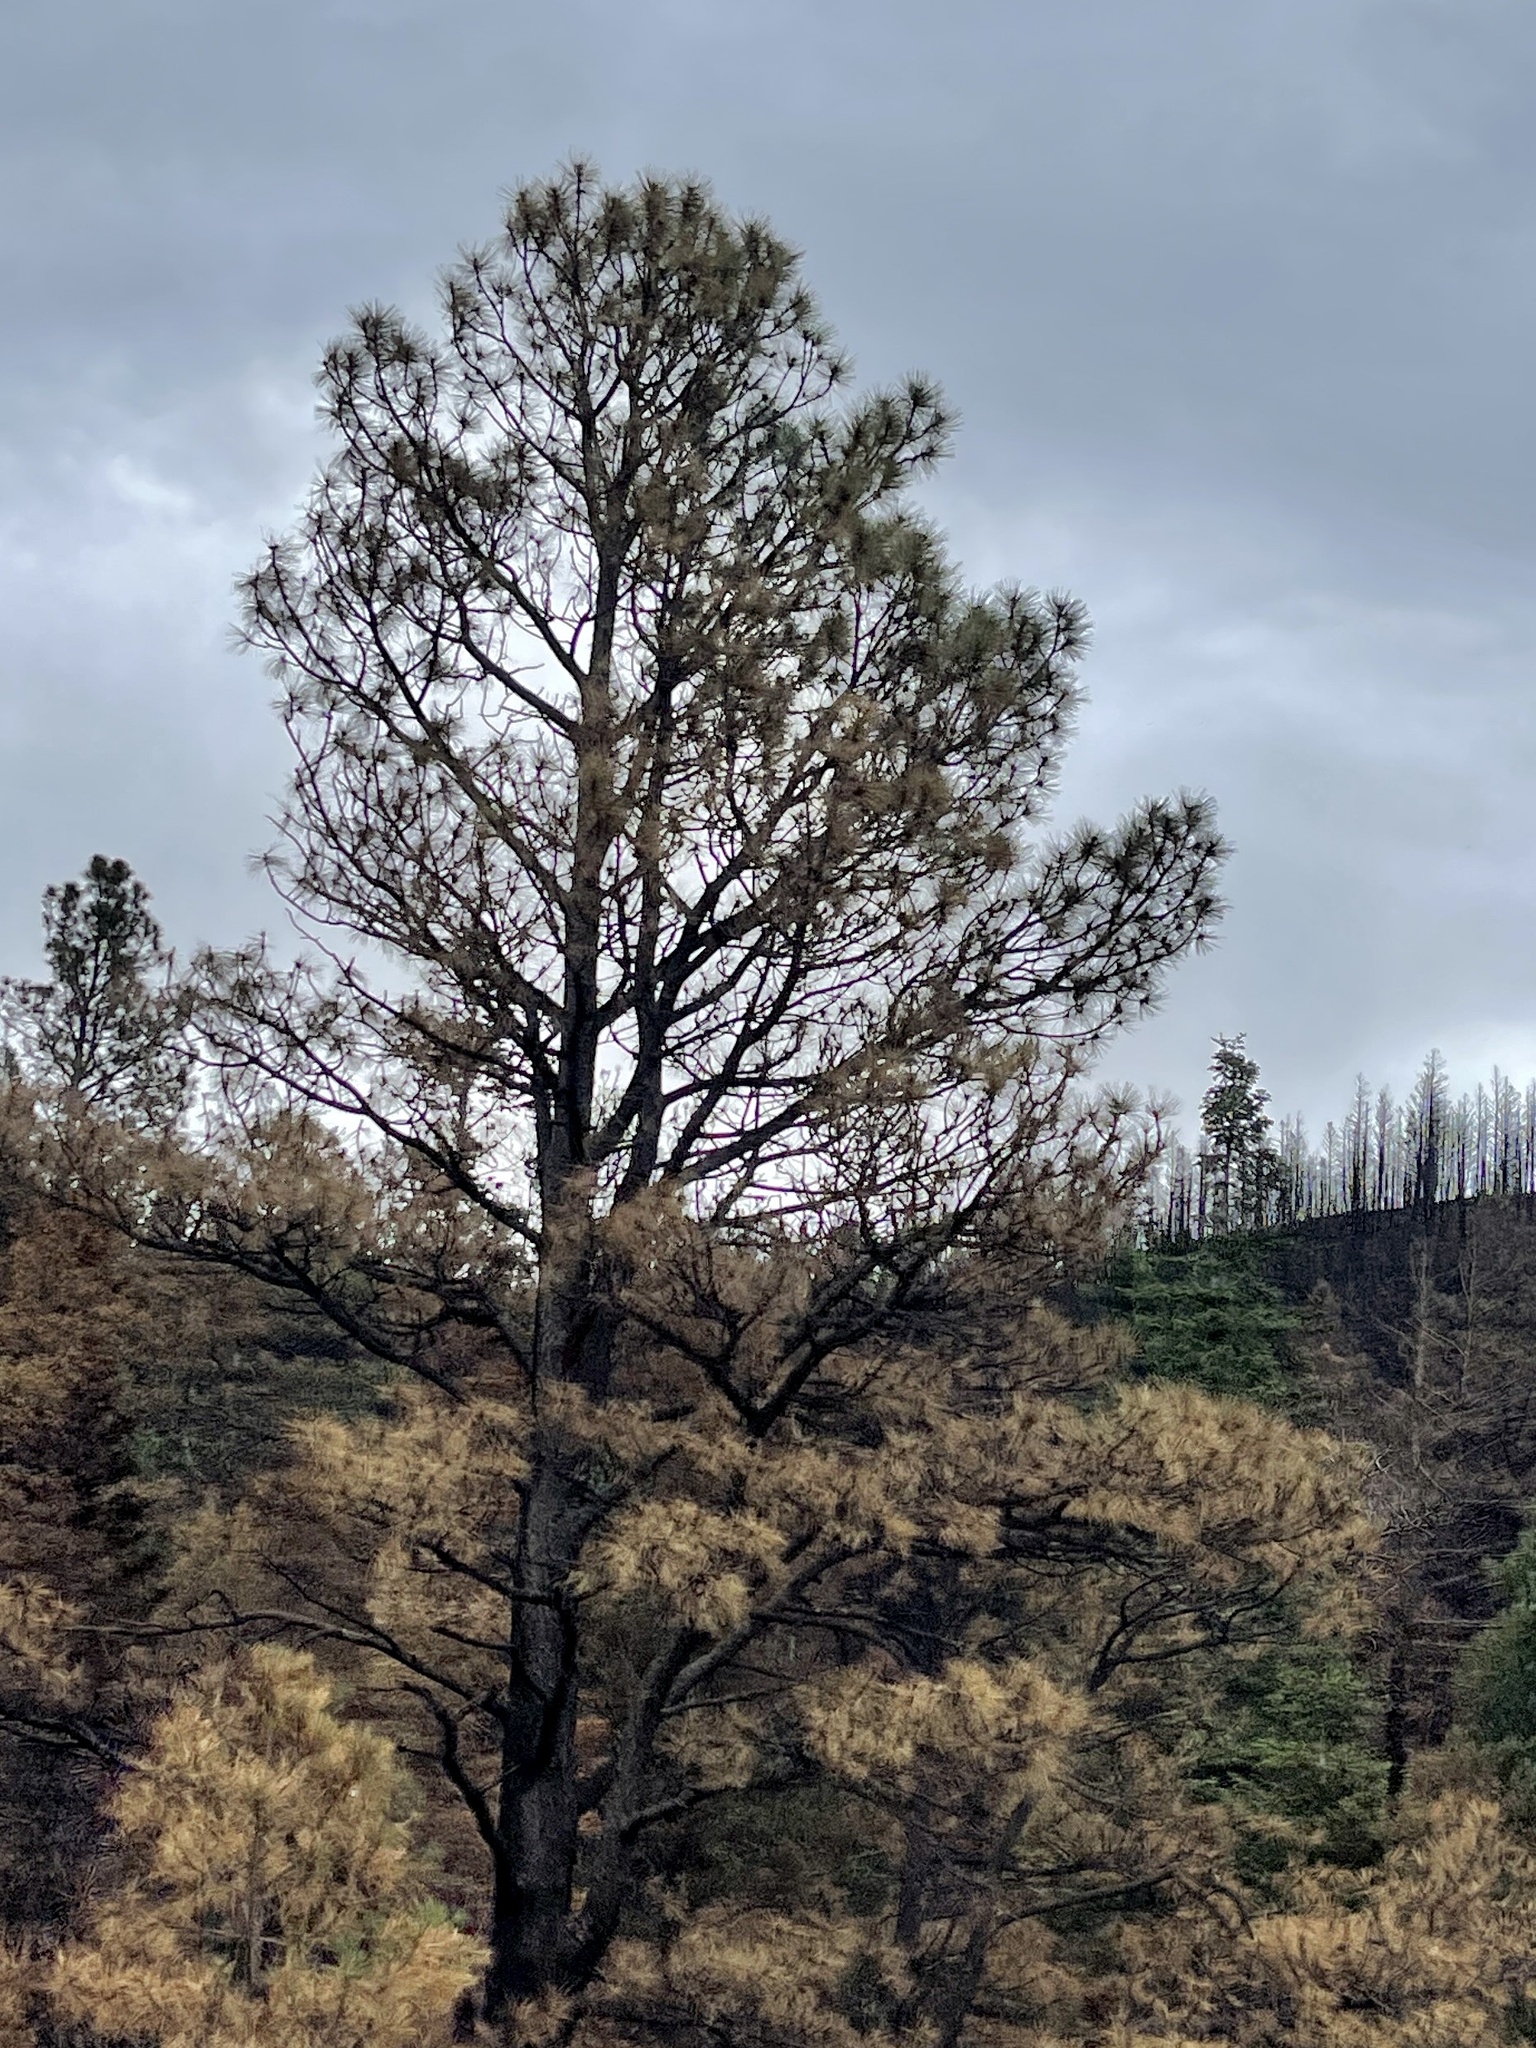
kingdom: Plantae
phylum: Tracheophyta
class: Pinopsida
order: Pinales
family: Pinaceae
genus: Pinus
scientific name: Pinus ponderosa
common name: Western yellow-pine
